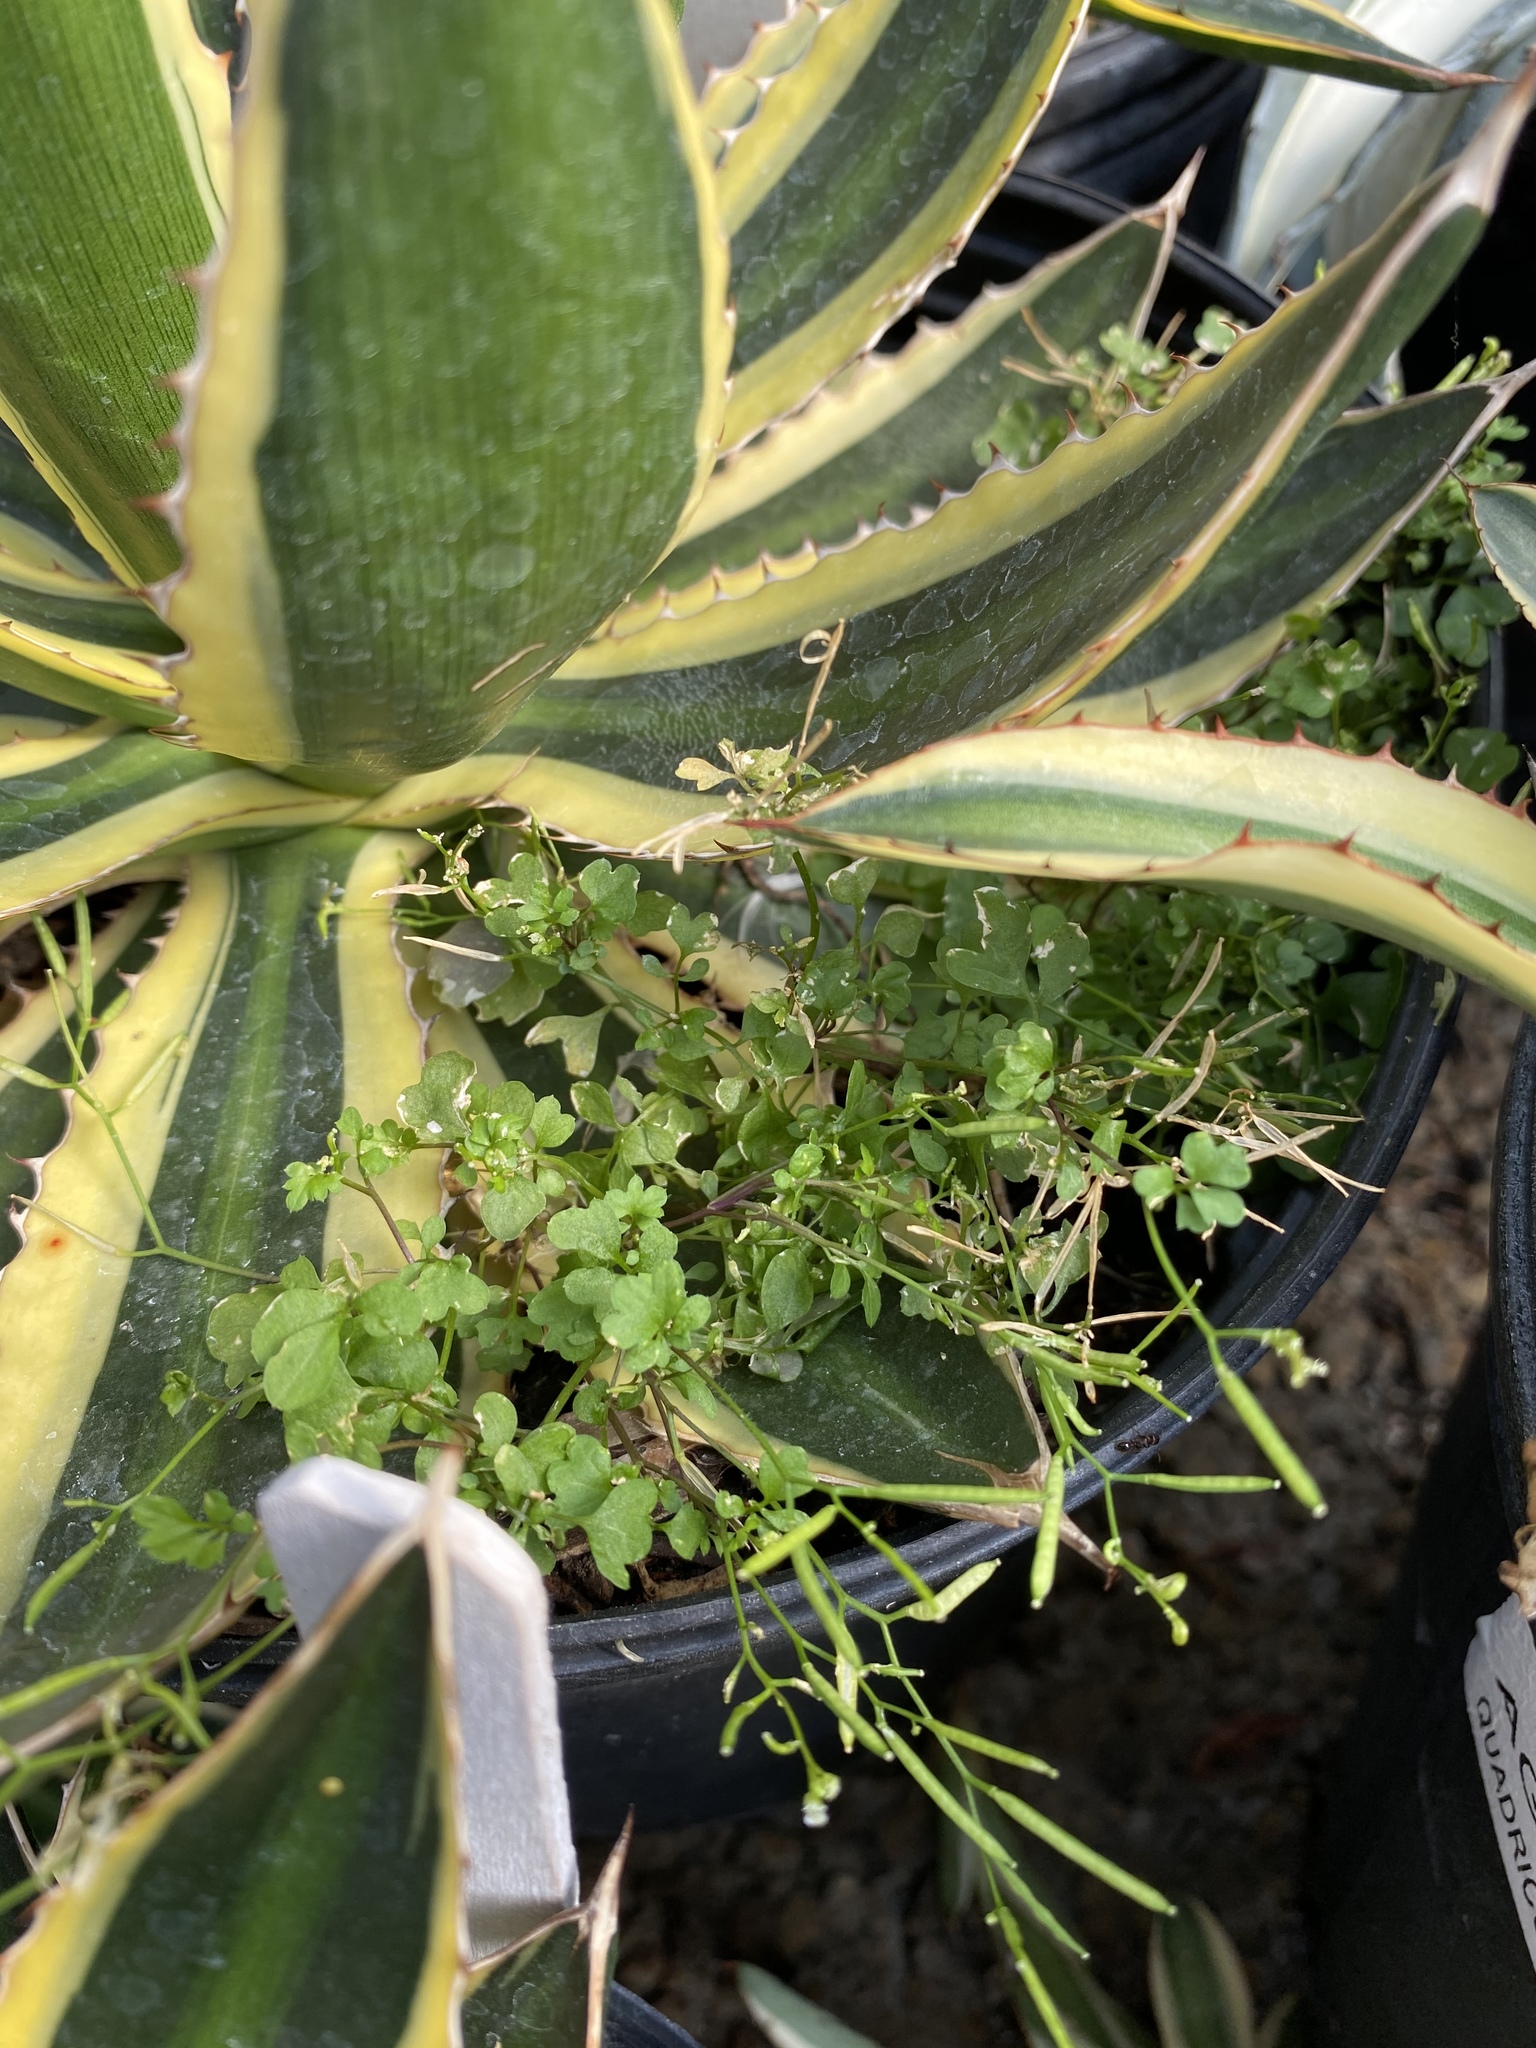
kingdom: Plantae
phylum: Tracheophyta
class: Magnoliopsida
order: Brassicales
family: Brassicaceae
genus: Cardamine
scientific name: Cardamine occulta
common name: Asian wavy bittercress
